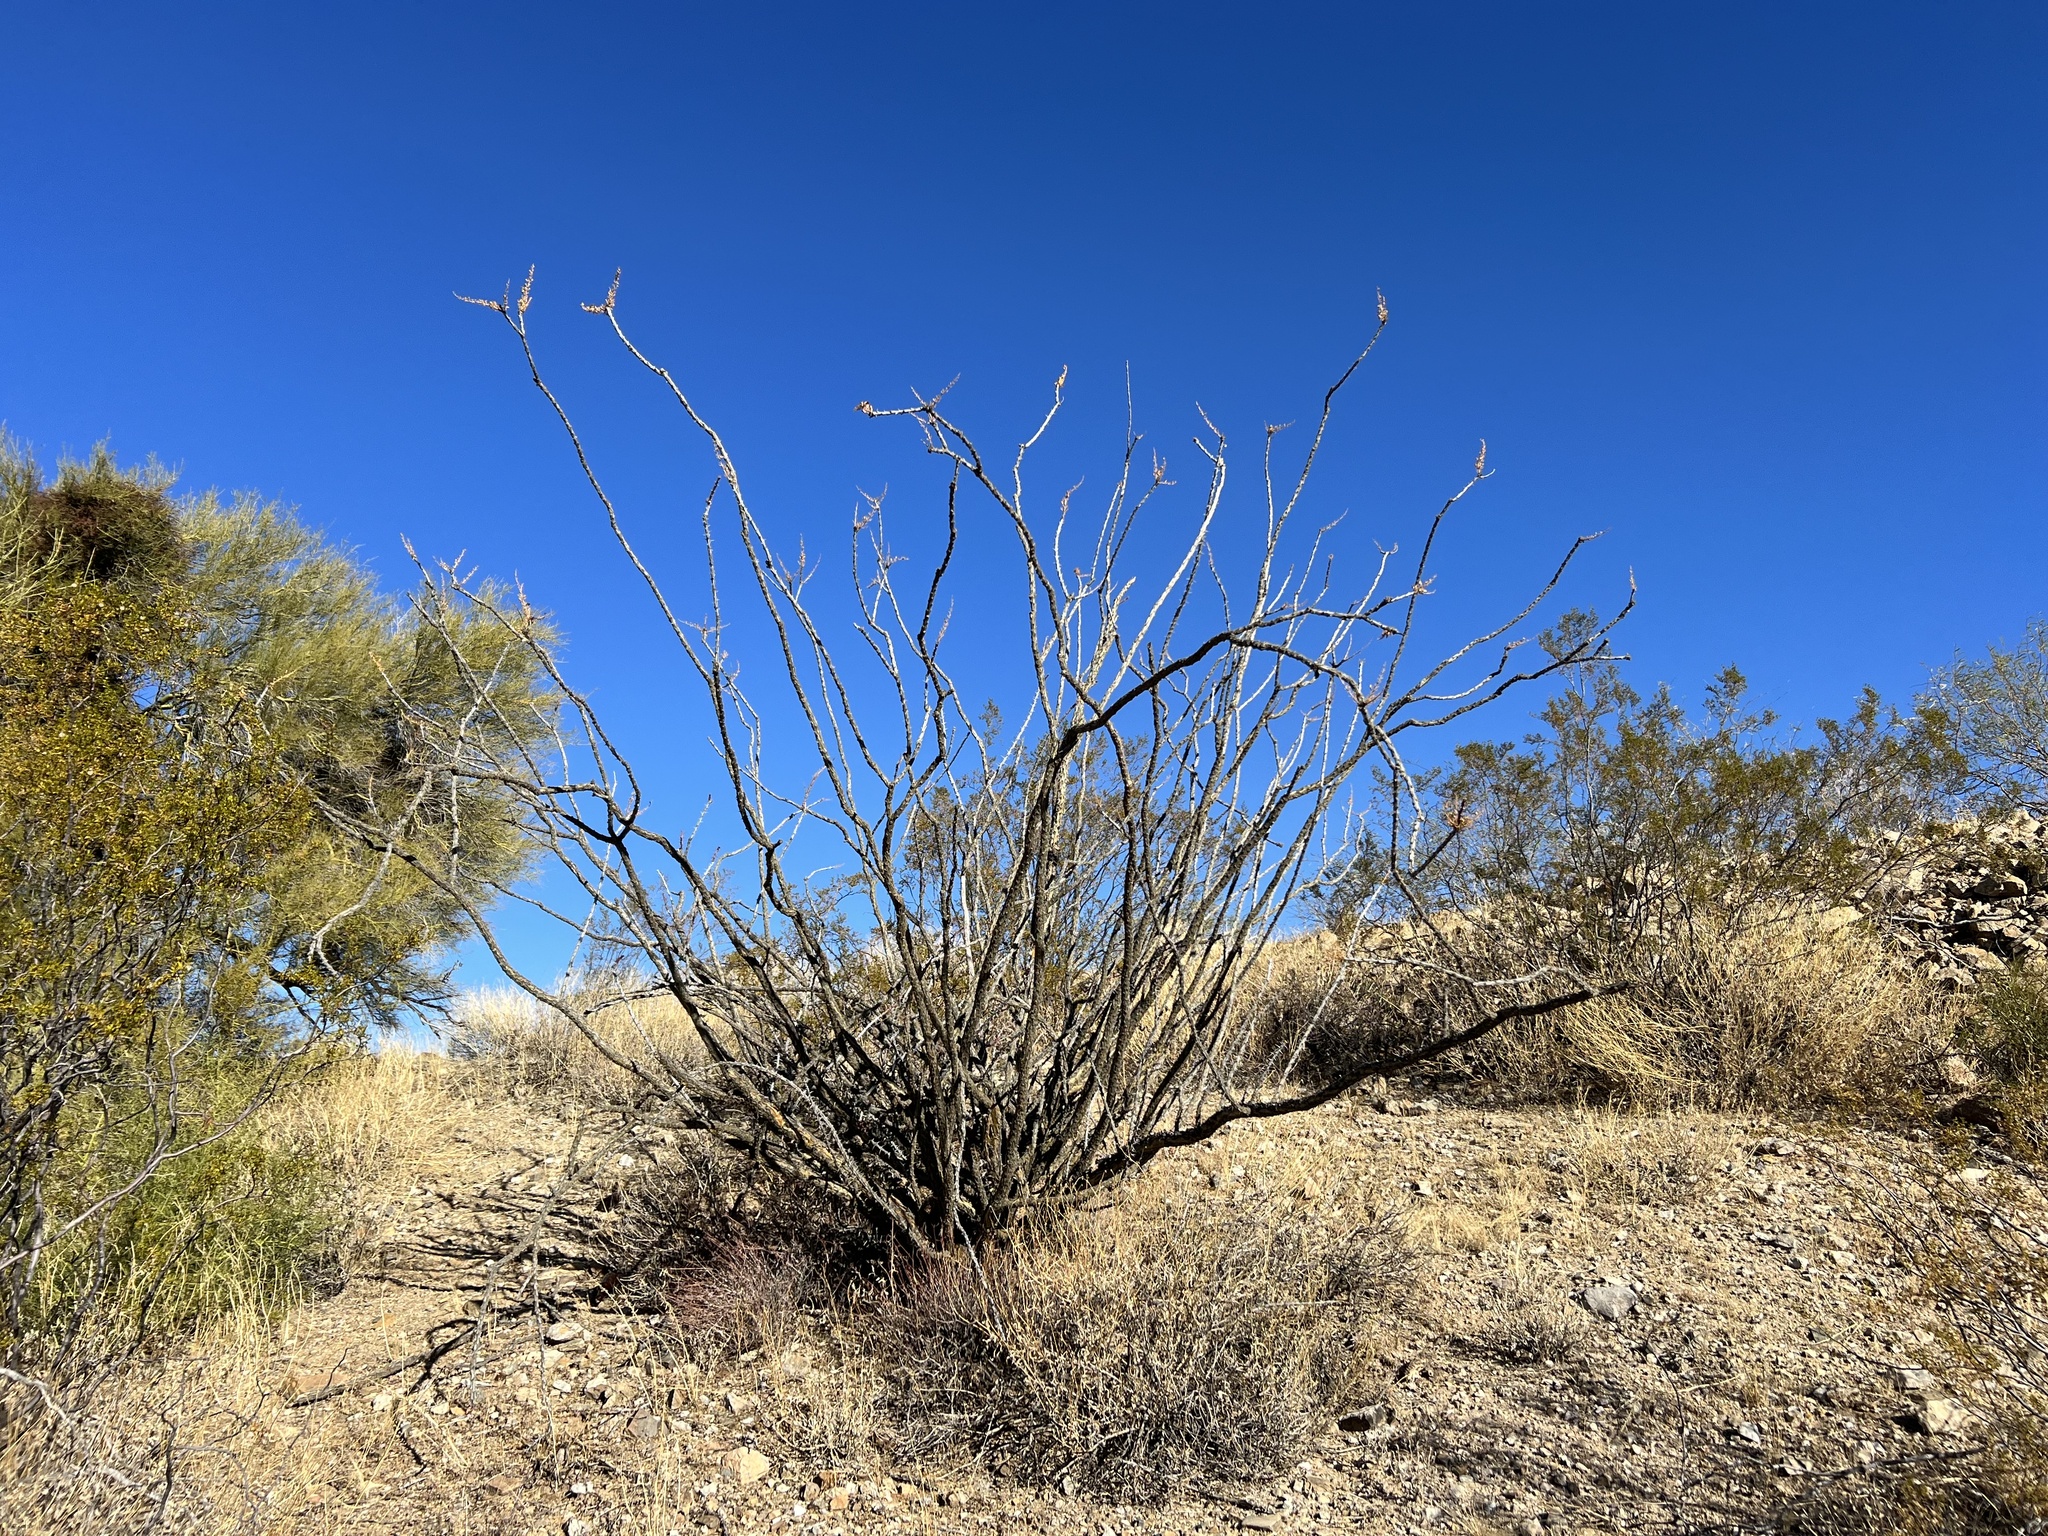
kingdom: Plantae
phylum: Tracheophyta
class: Magnoliopsida
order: Ericales
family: Fouquieriaceae
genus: Fouquieria
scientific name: Fouquieria splendens
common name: Vine-cactus
